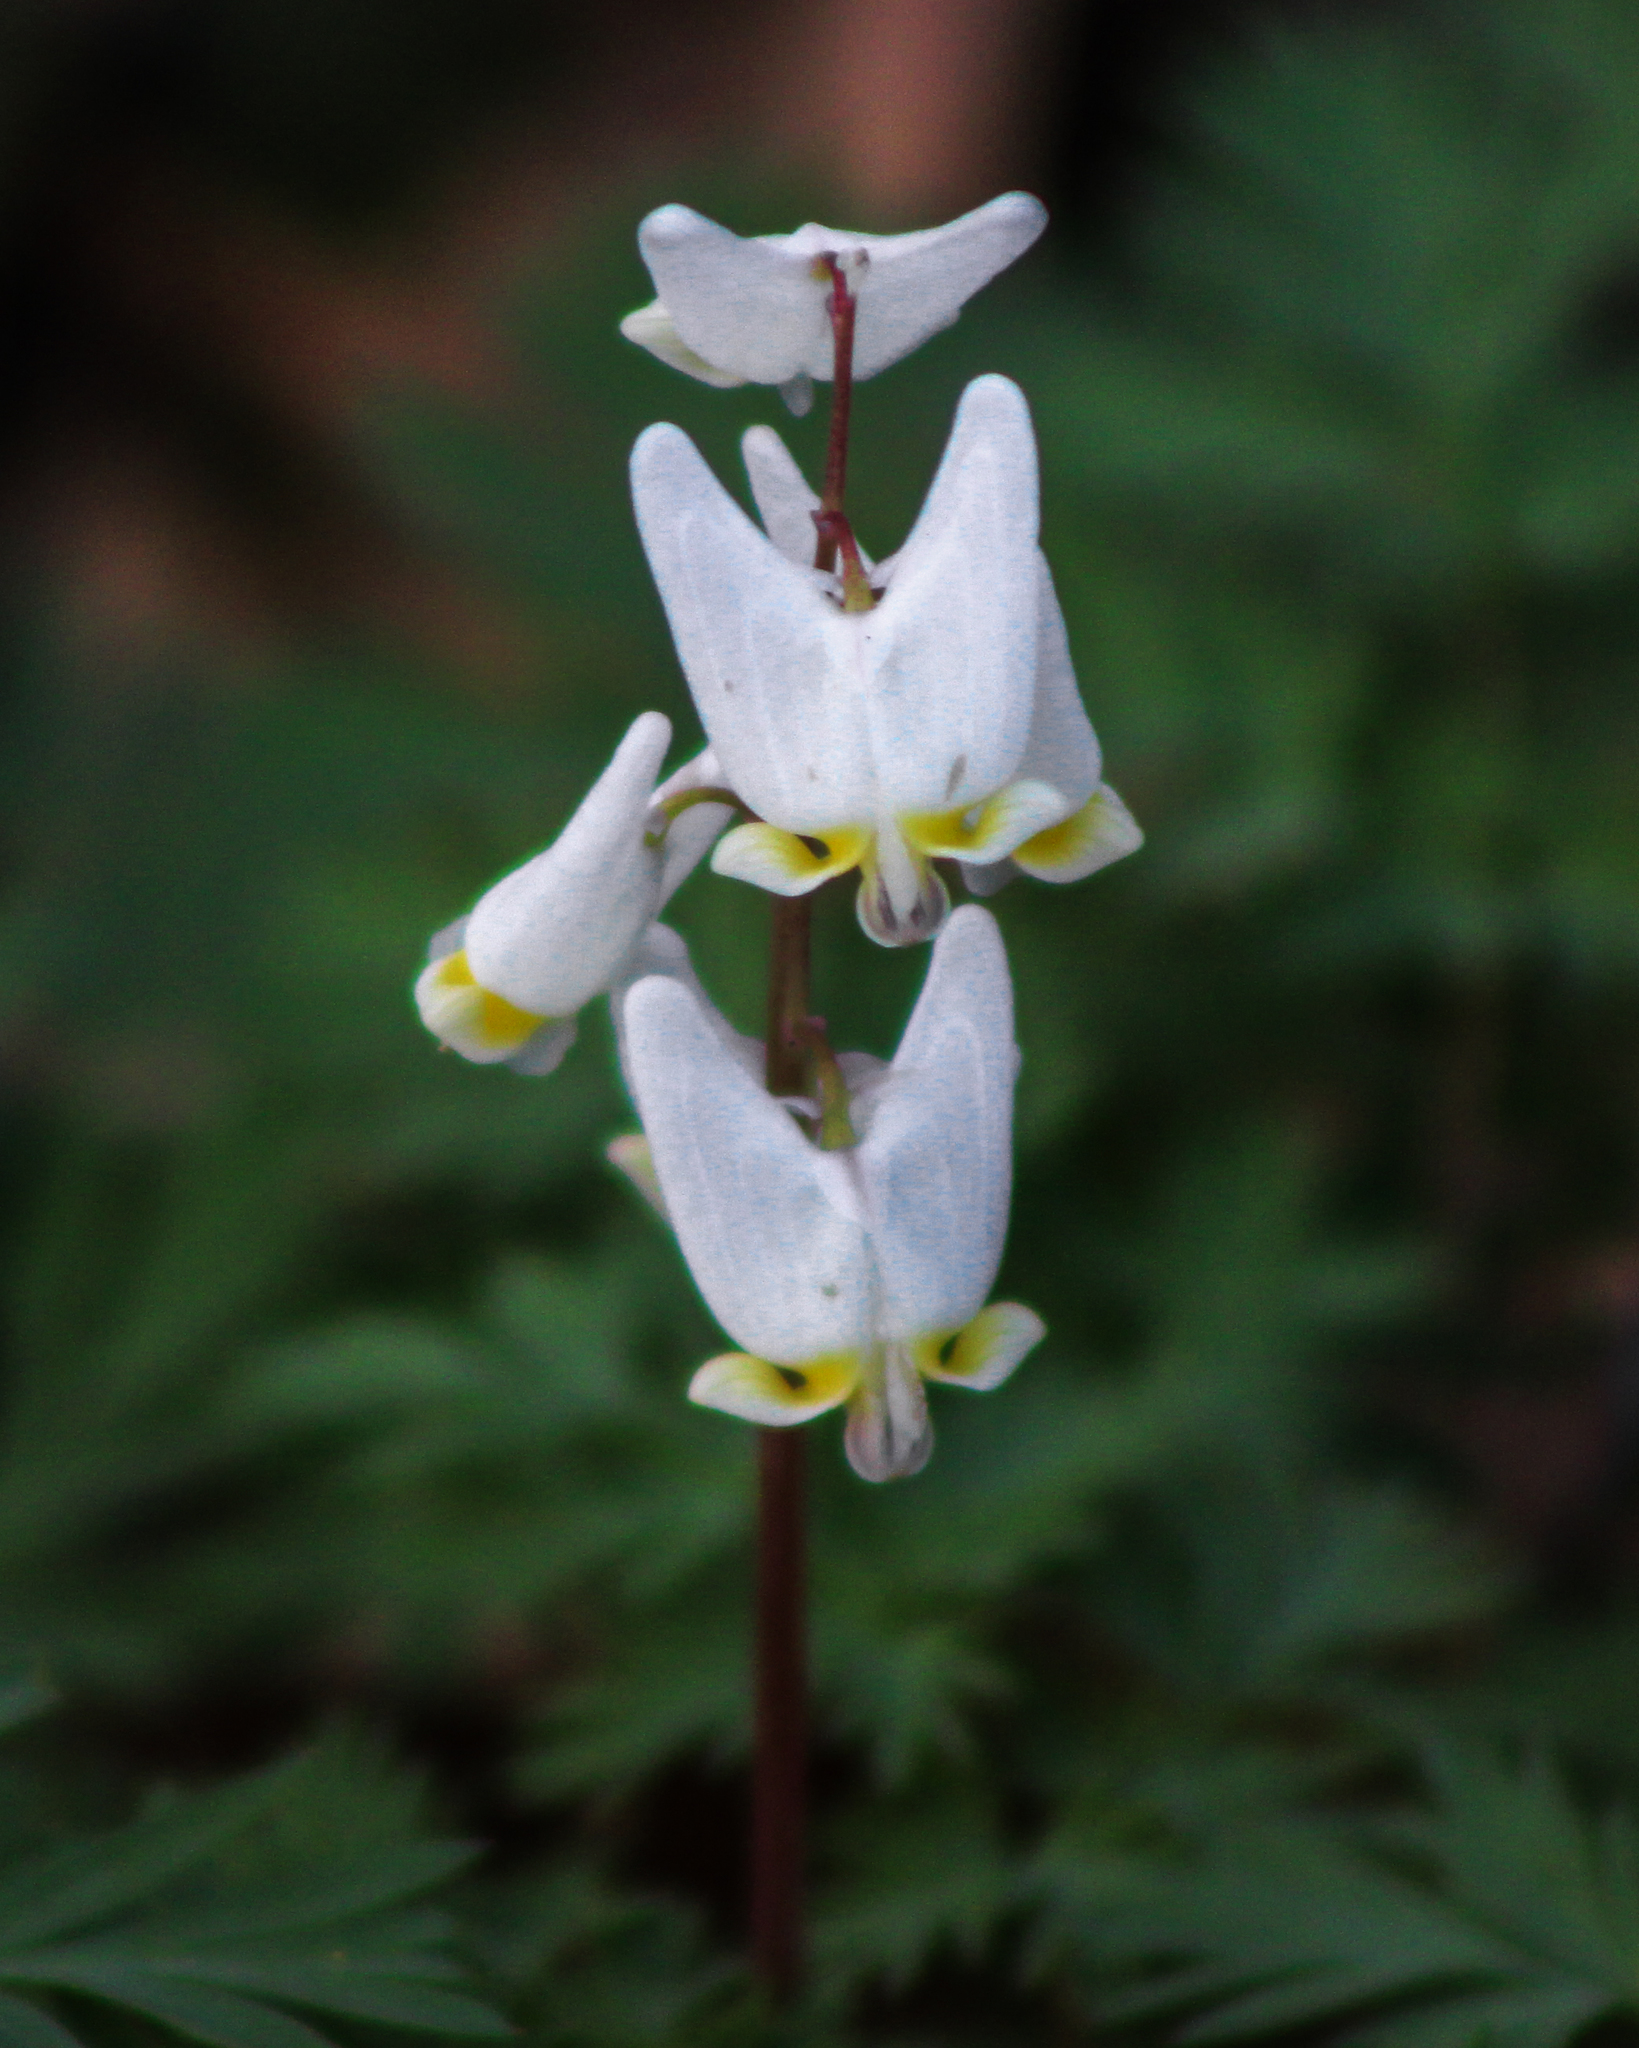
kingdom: Plantae
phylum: Tracheophyta
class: Magnoliopsida
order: Ranunculales
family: Papaveraceae
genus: Dicentra
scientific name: Dicentra cucullaria
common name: Dutchman's breeches
